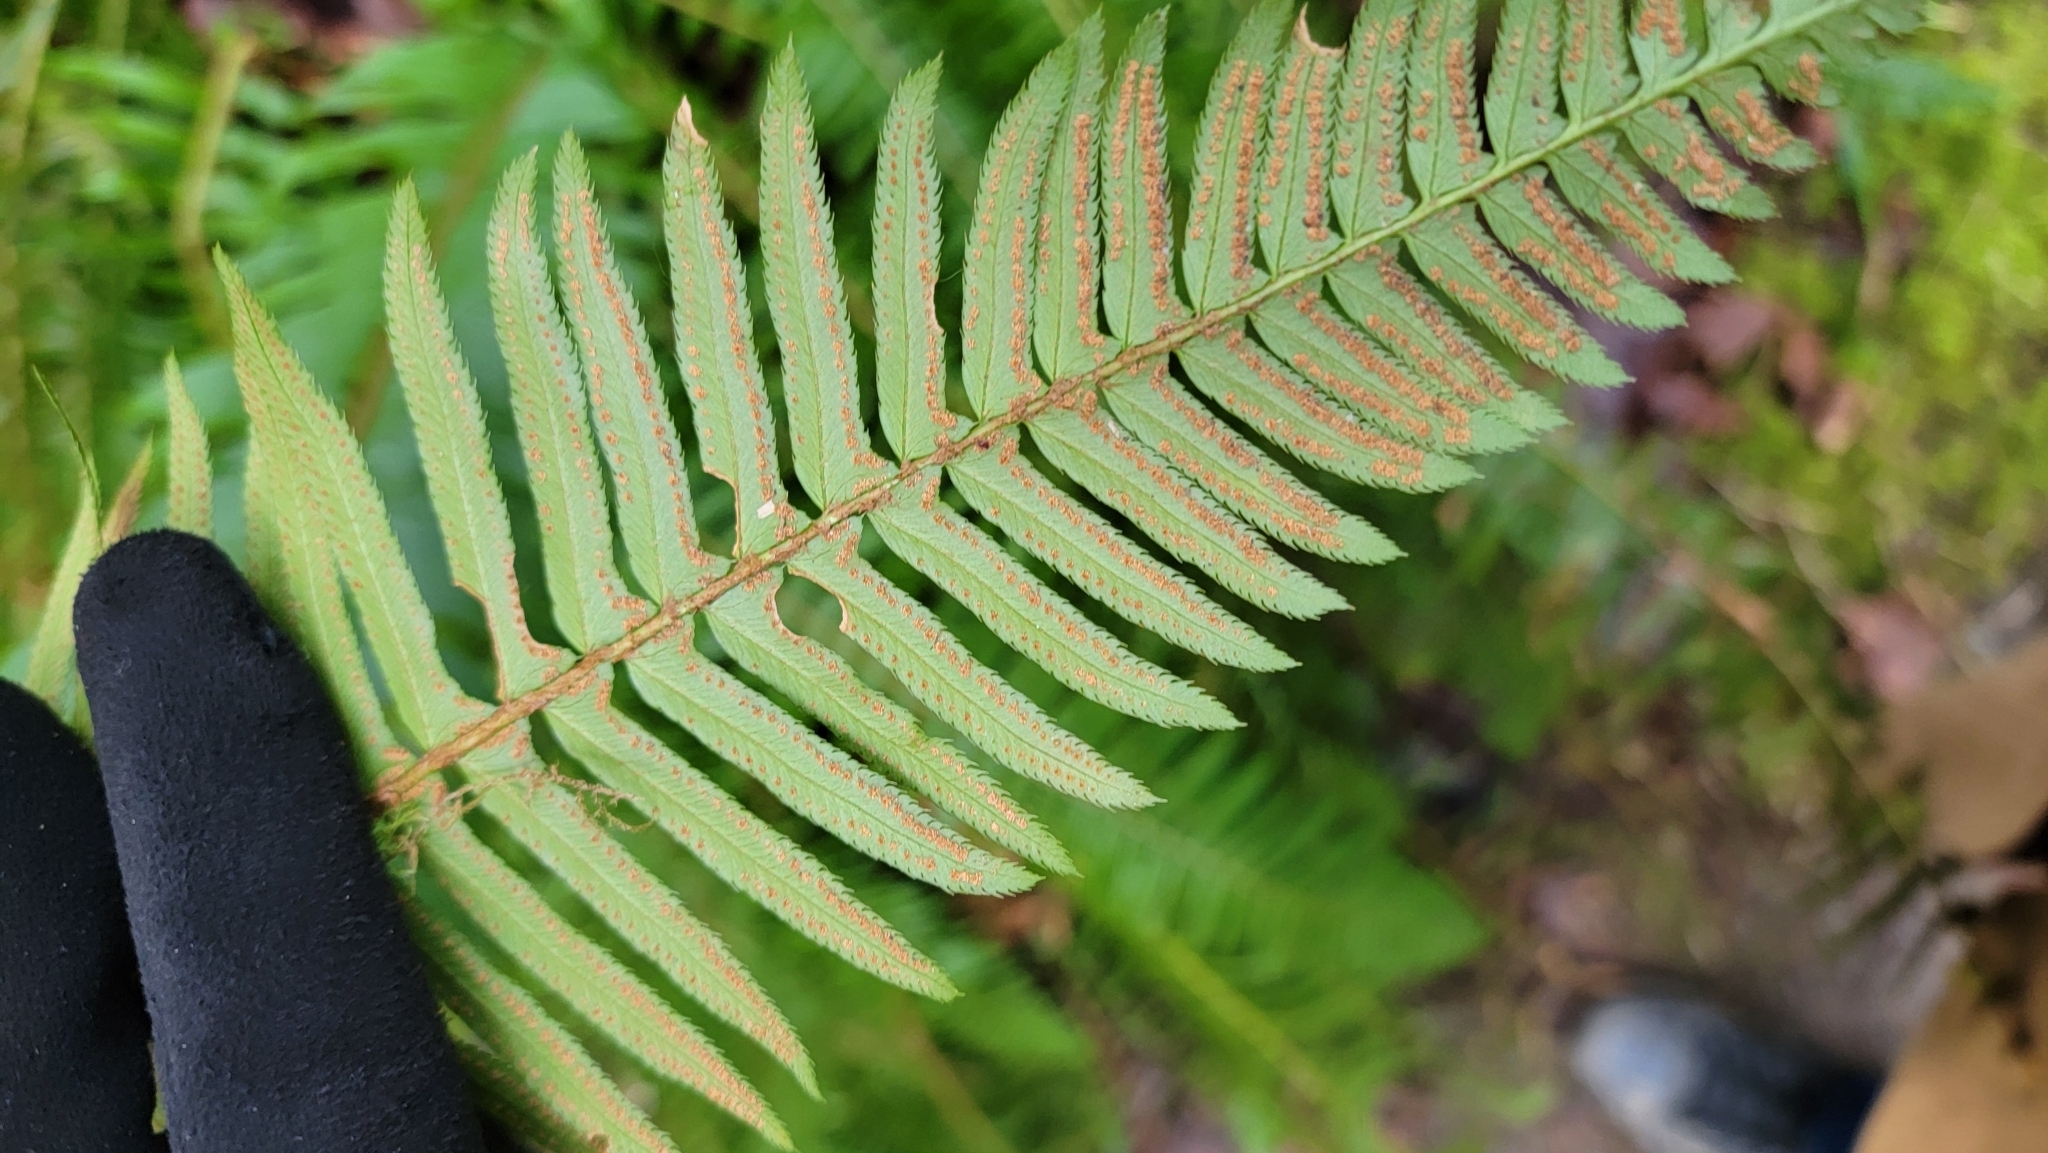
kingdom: Plantae
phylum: Tracheophyta
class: Polypodiopsida
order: Polypodiales
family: Dryopteridaceae
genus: Polystichum
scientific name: Polystichum munitum
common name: Western sword-fern
